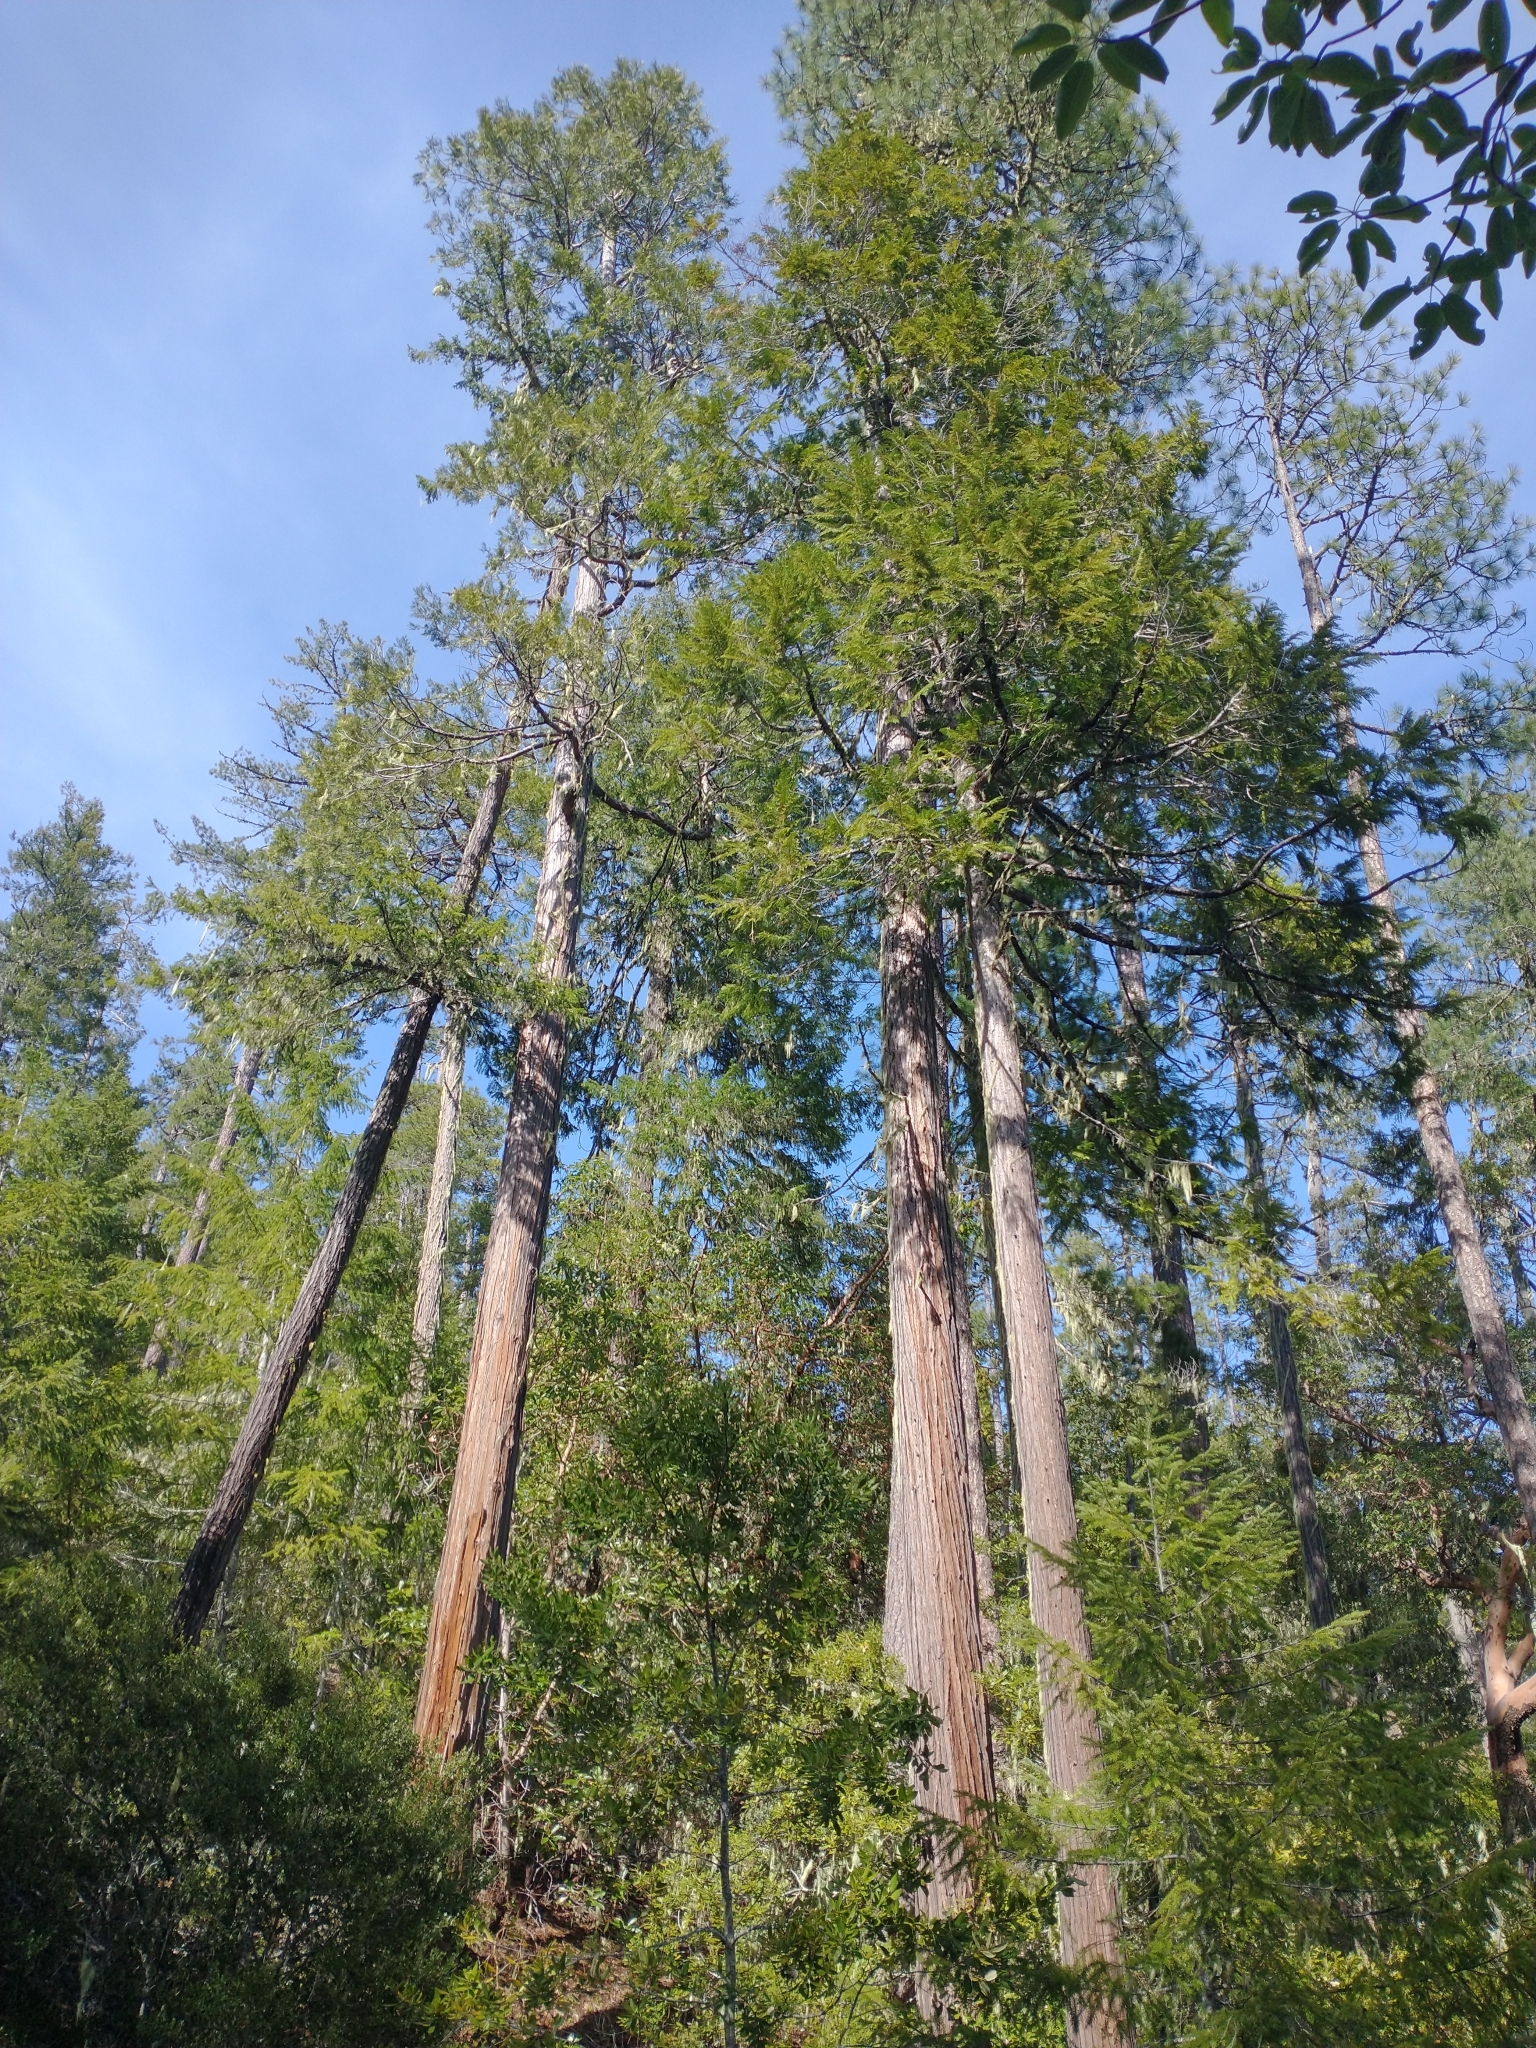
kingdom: Plantae
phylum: Tracheophyta
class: Pinopsida
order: Pinales
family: Cupressaceae
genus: Chamaecyparis
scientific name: Chamaecyparis lawsoniana
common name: Lawson's cypress
